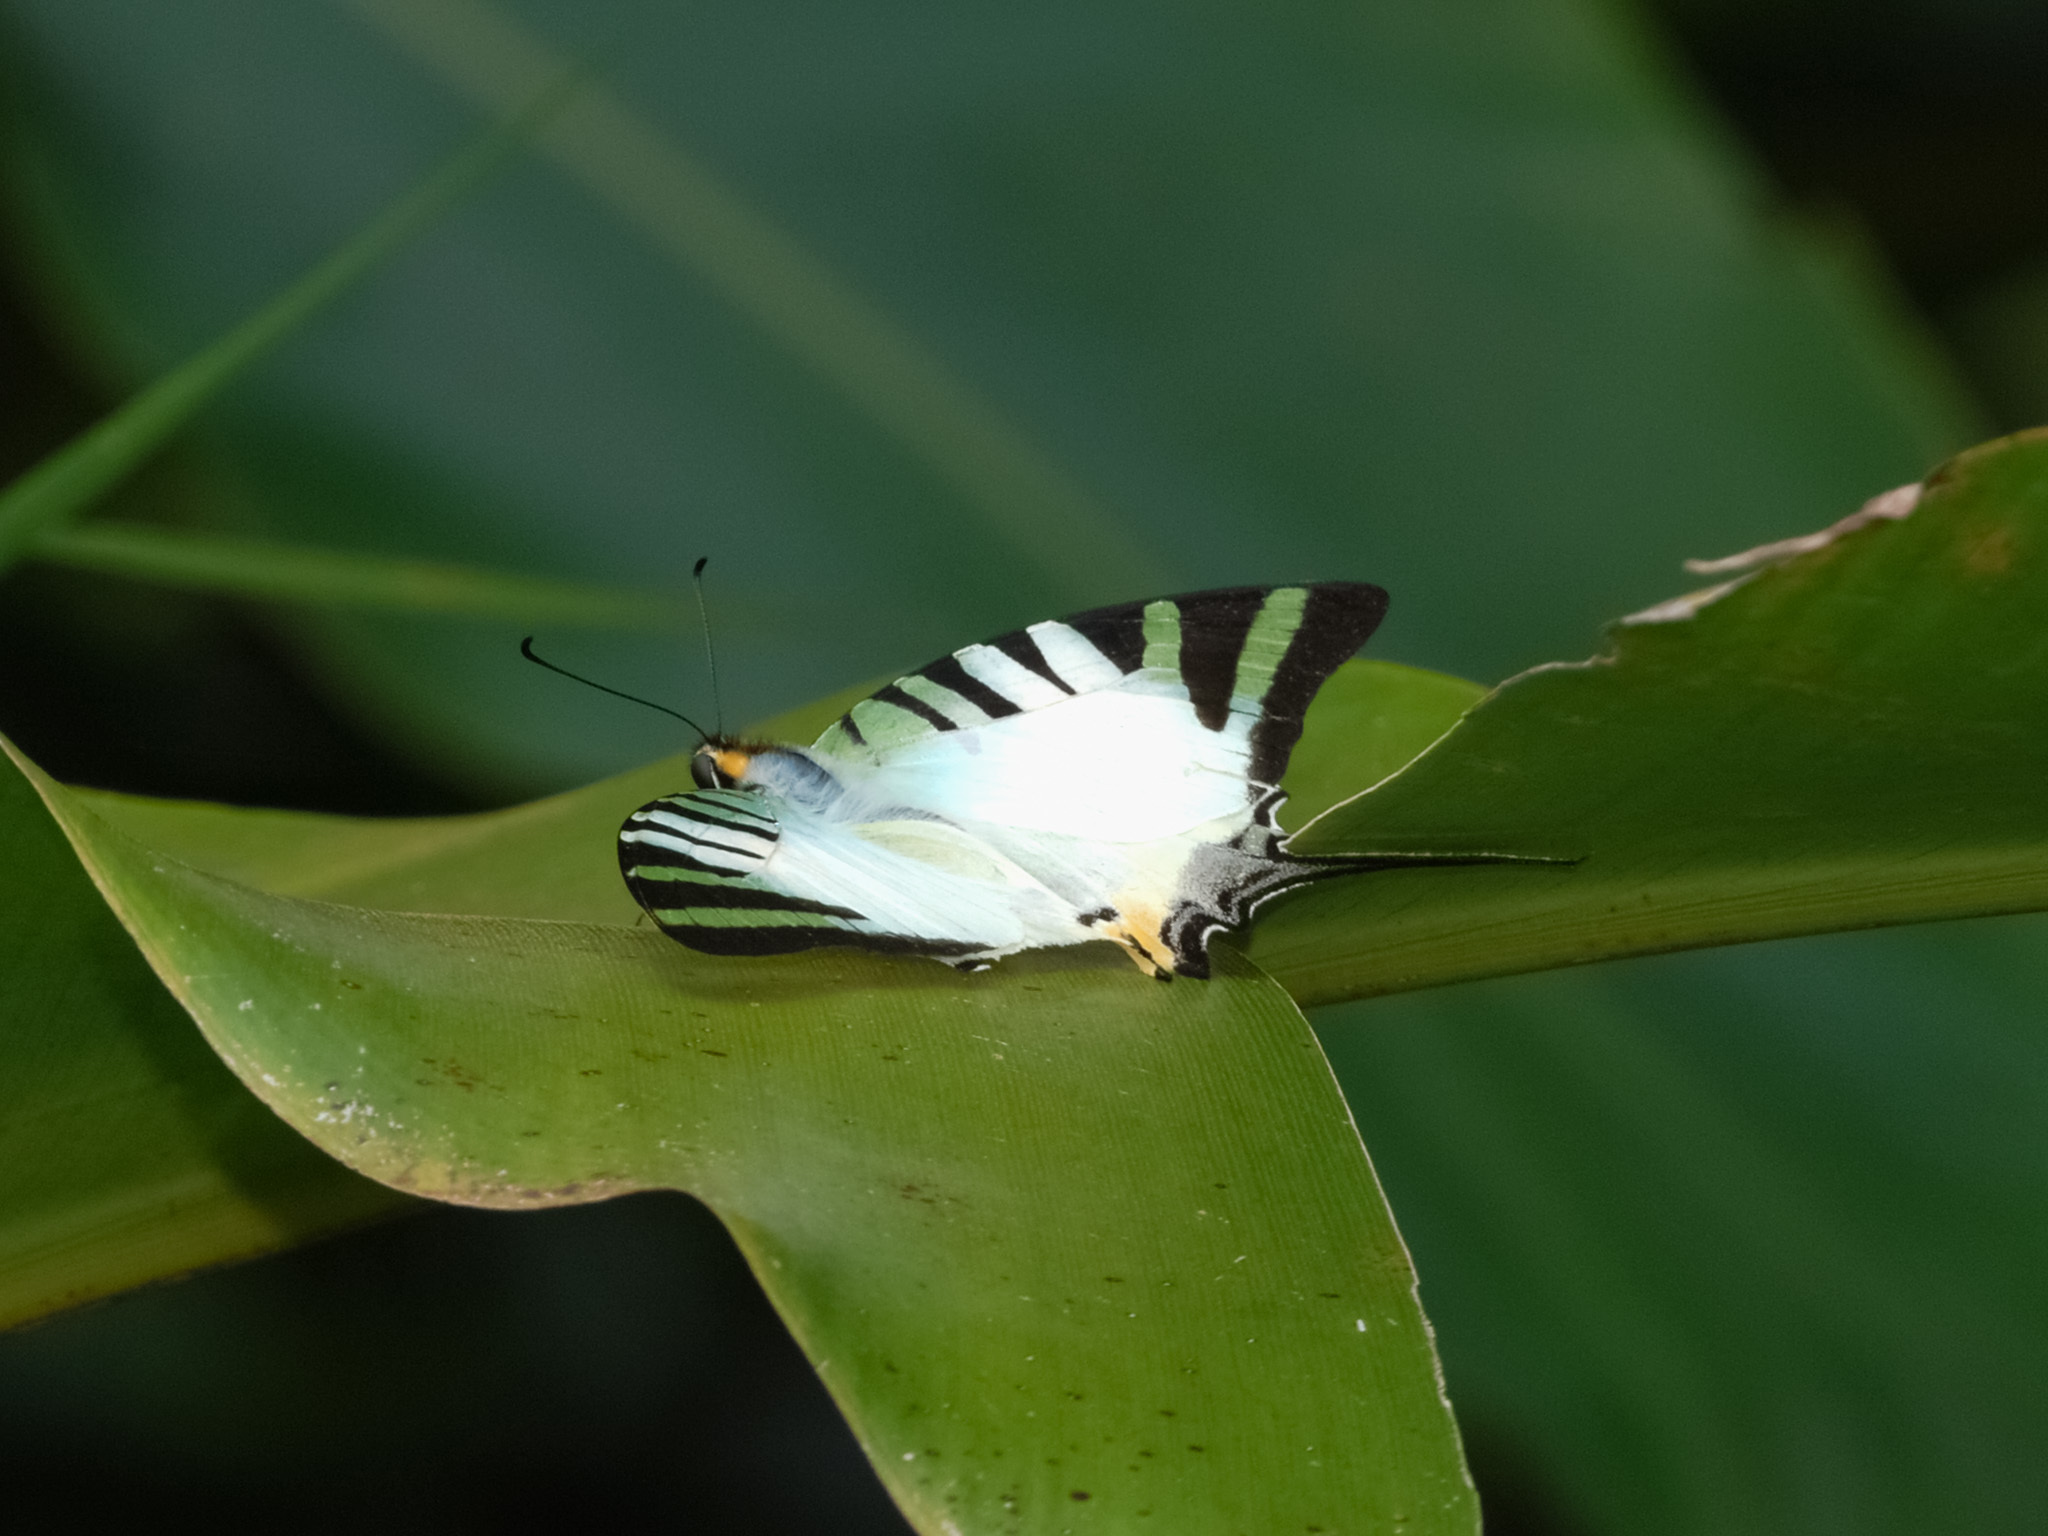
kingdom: Animalia
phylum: Arthropoda
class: Insecta
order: Lepidoptera
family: Papilionidae
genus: Graphium
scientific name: Graphium antiphates
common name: Fivebar swordtail
